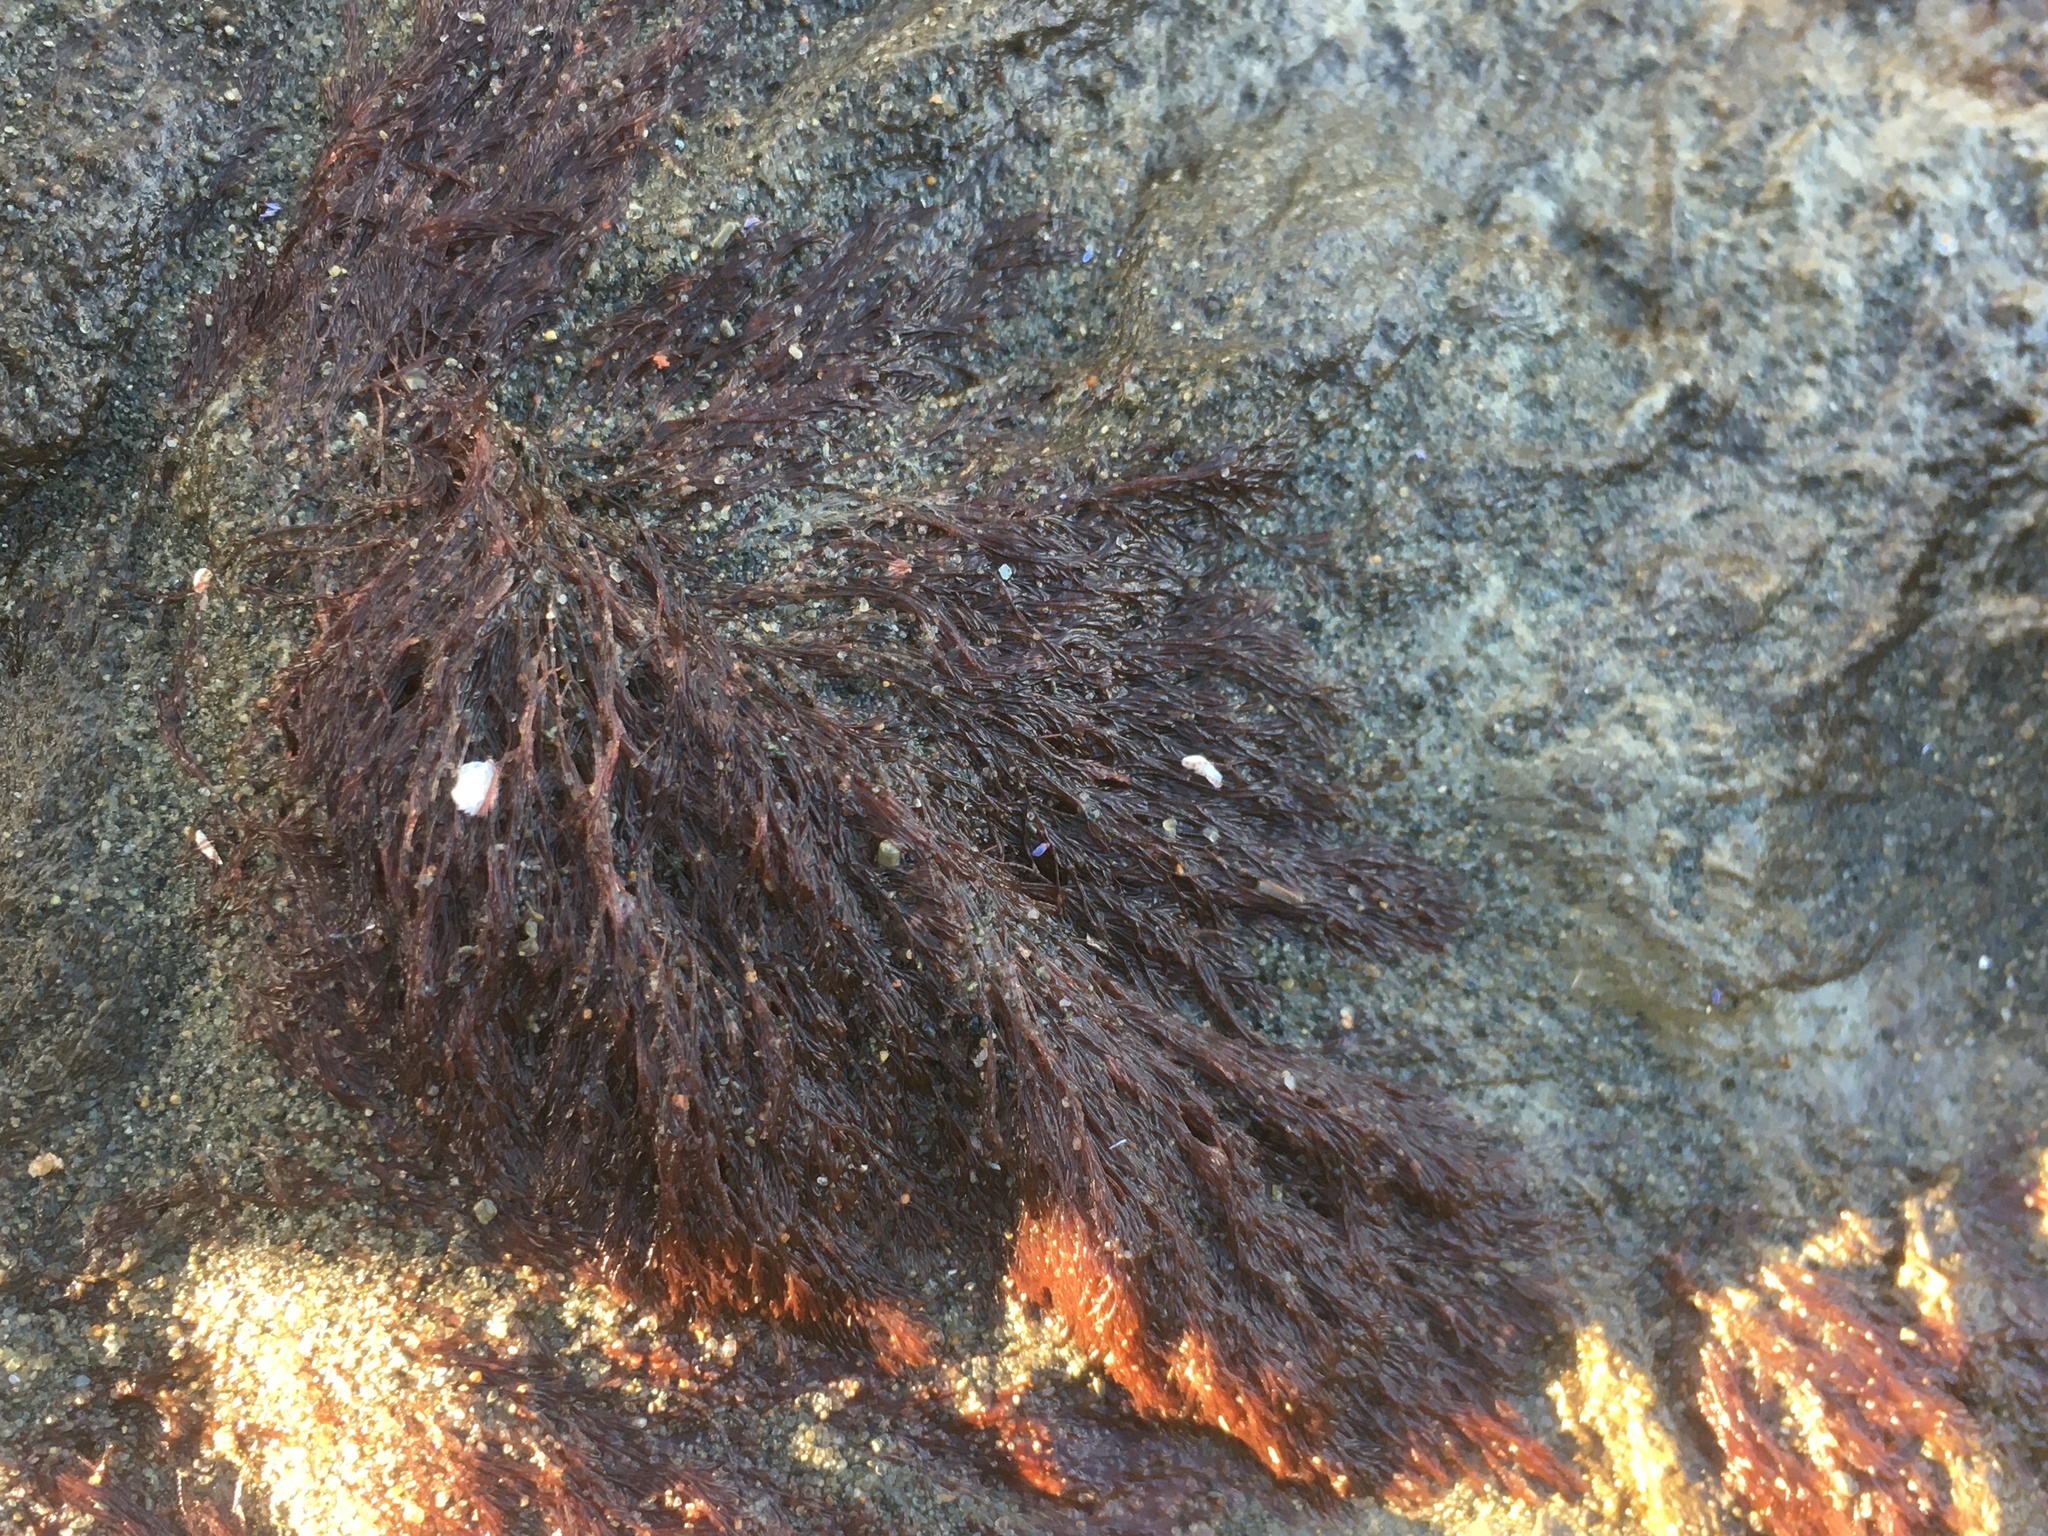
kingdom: Chromista
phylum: Ochrophyta
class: Phaeophyceae
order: Fucales
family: Sargassaceae
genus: Sargassum
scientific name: Sargassum muticum
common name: Japweed
